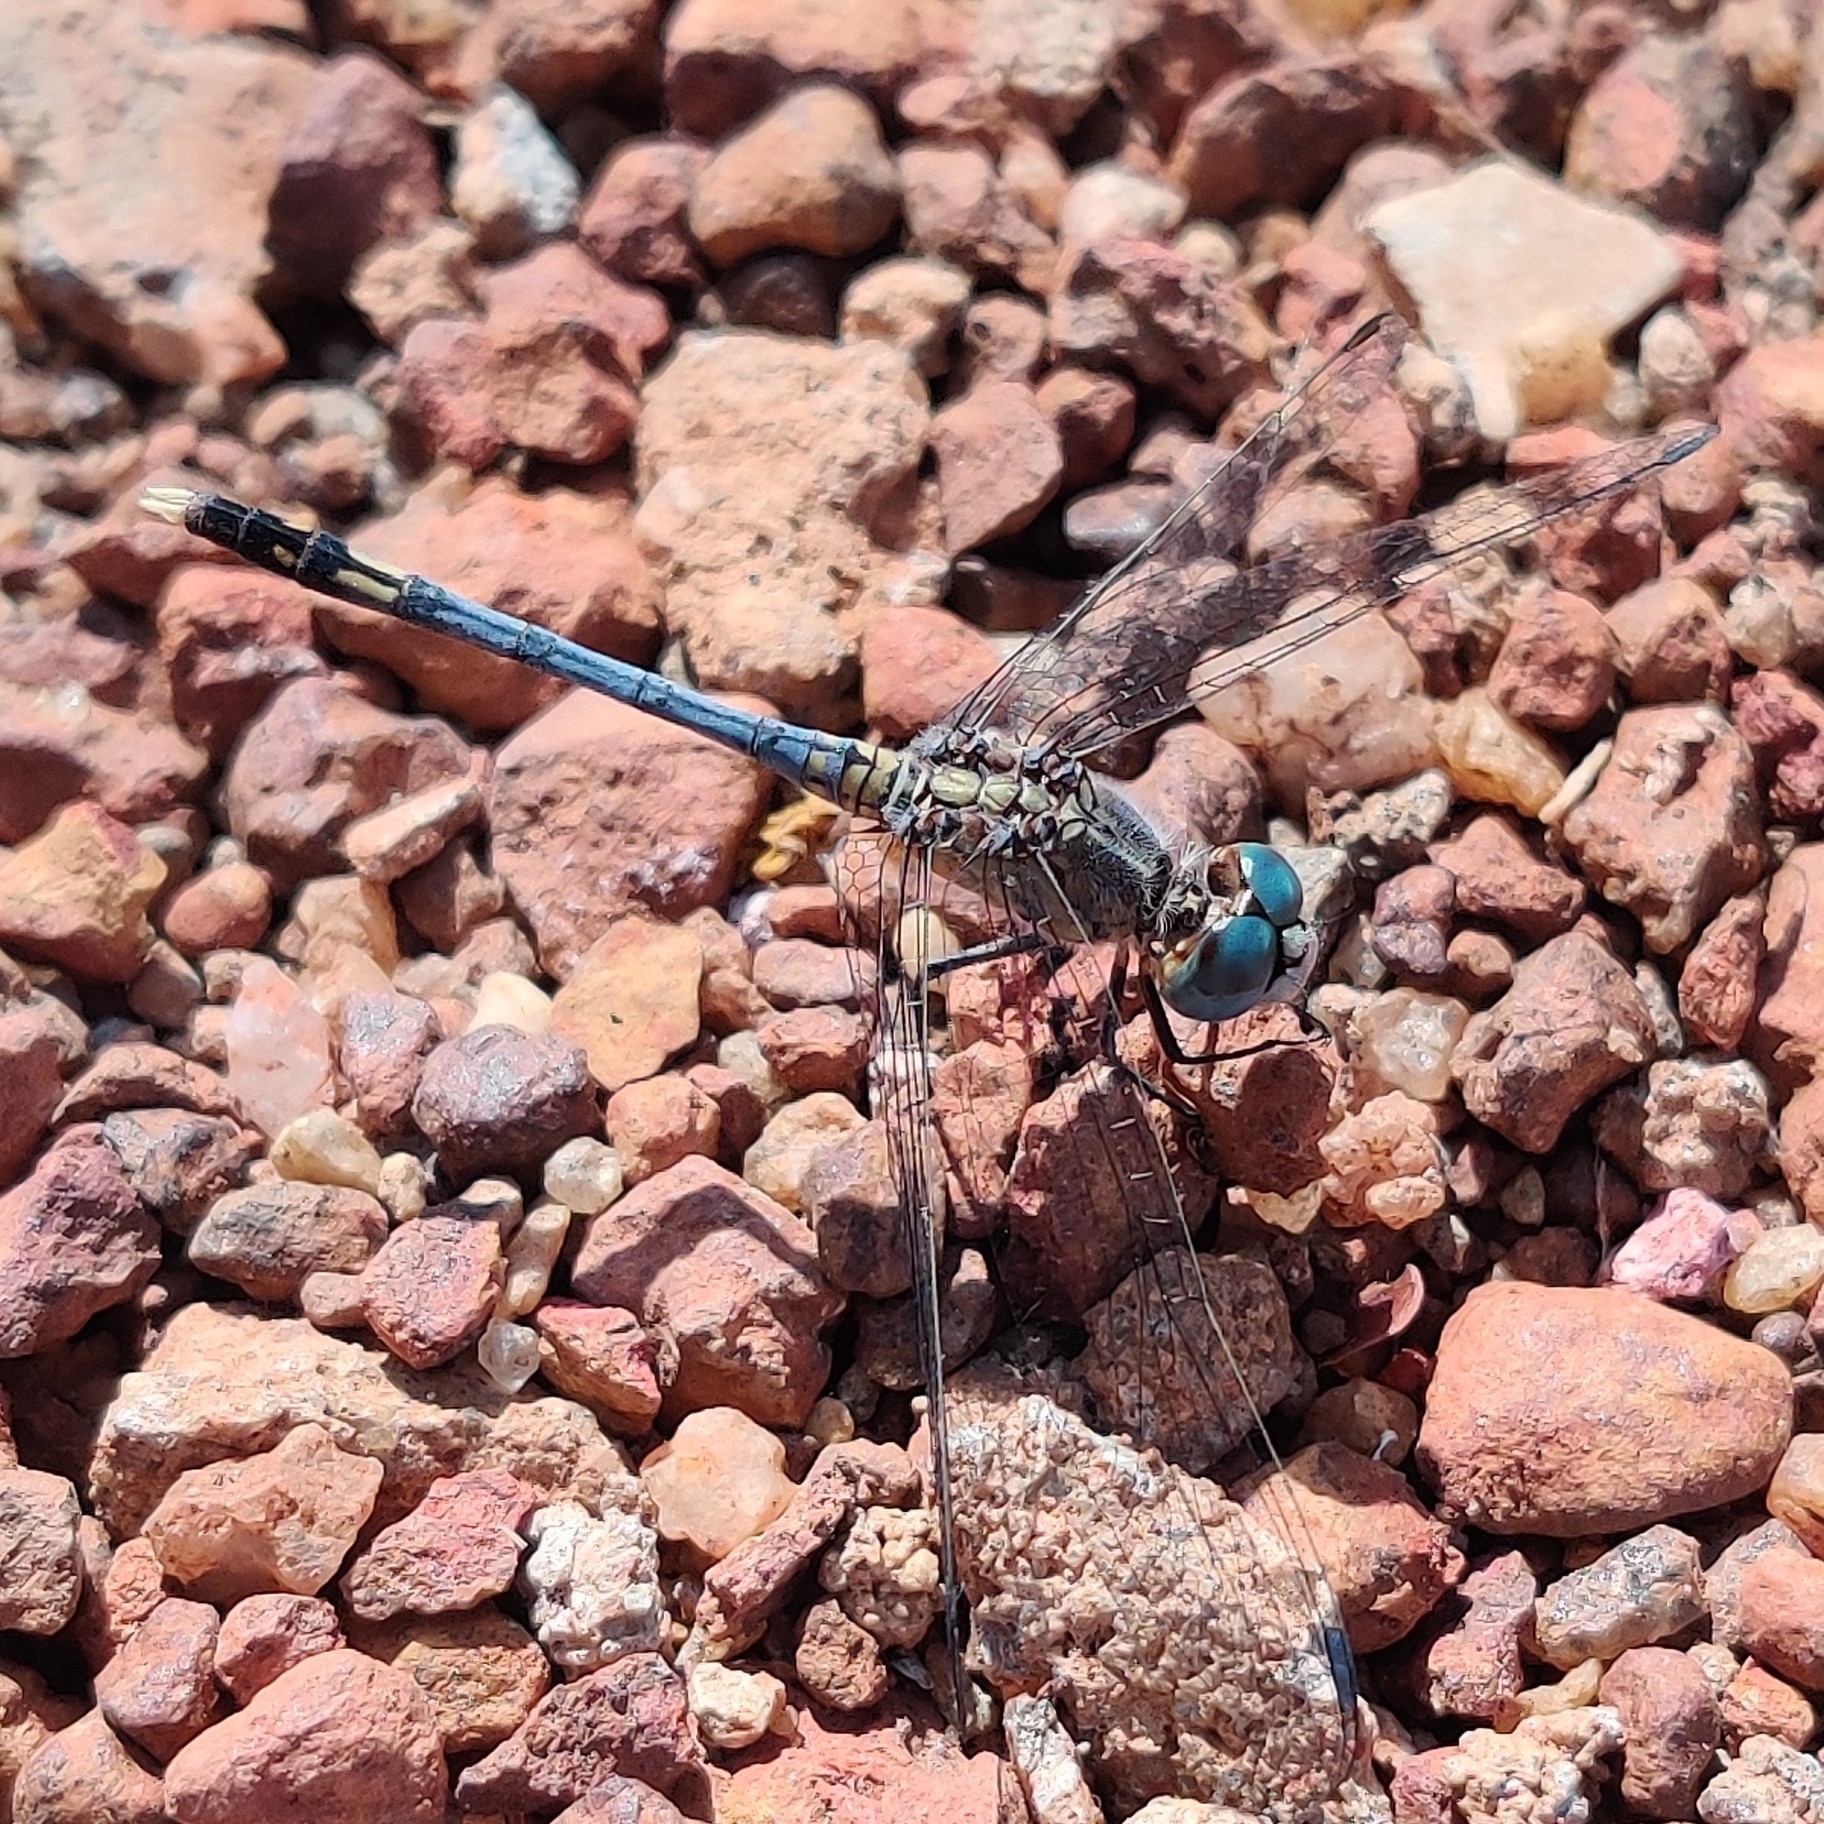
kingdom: Animalia
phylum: Arthropoda
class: Insecta
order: Odonata
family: Libellulidae
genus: Diplacodes
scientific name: Diplacodes trivialis
